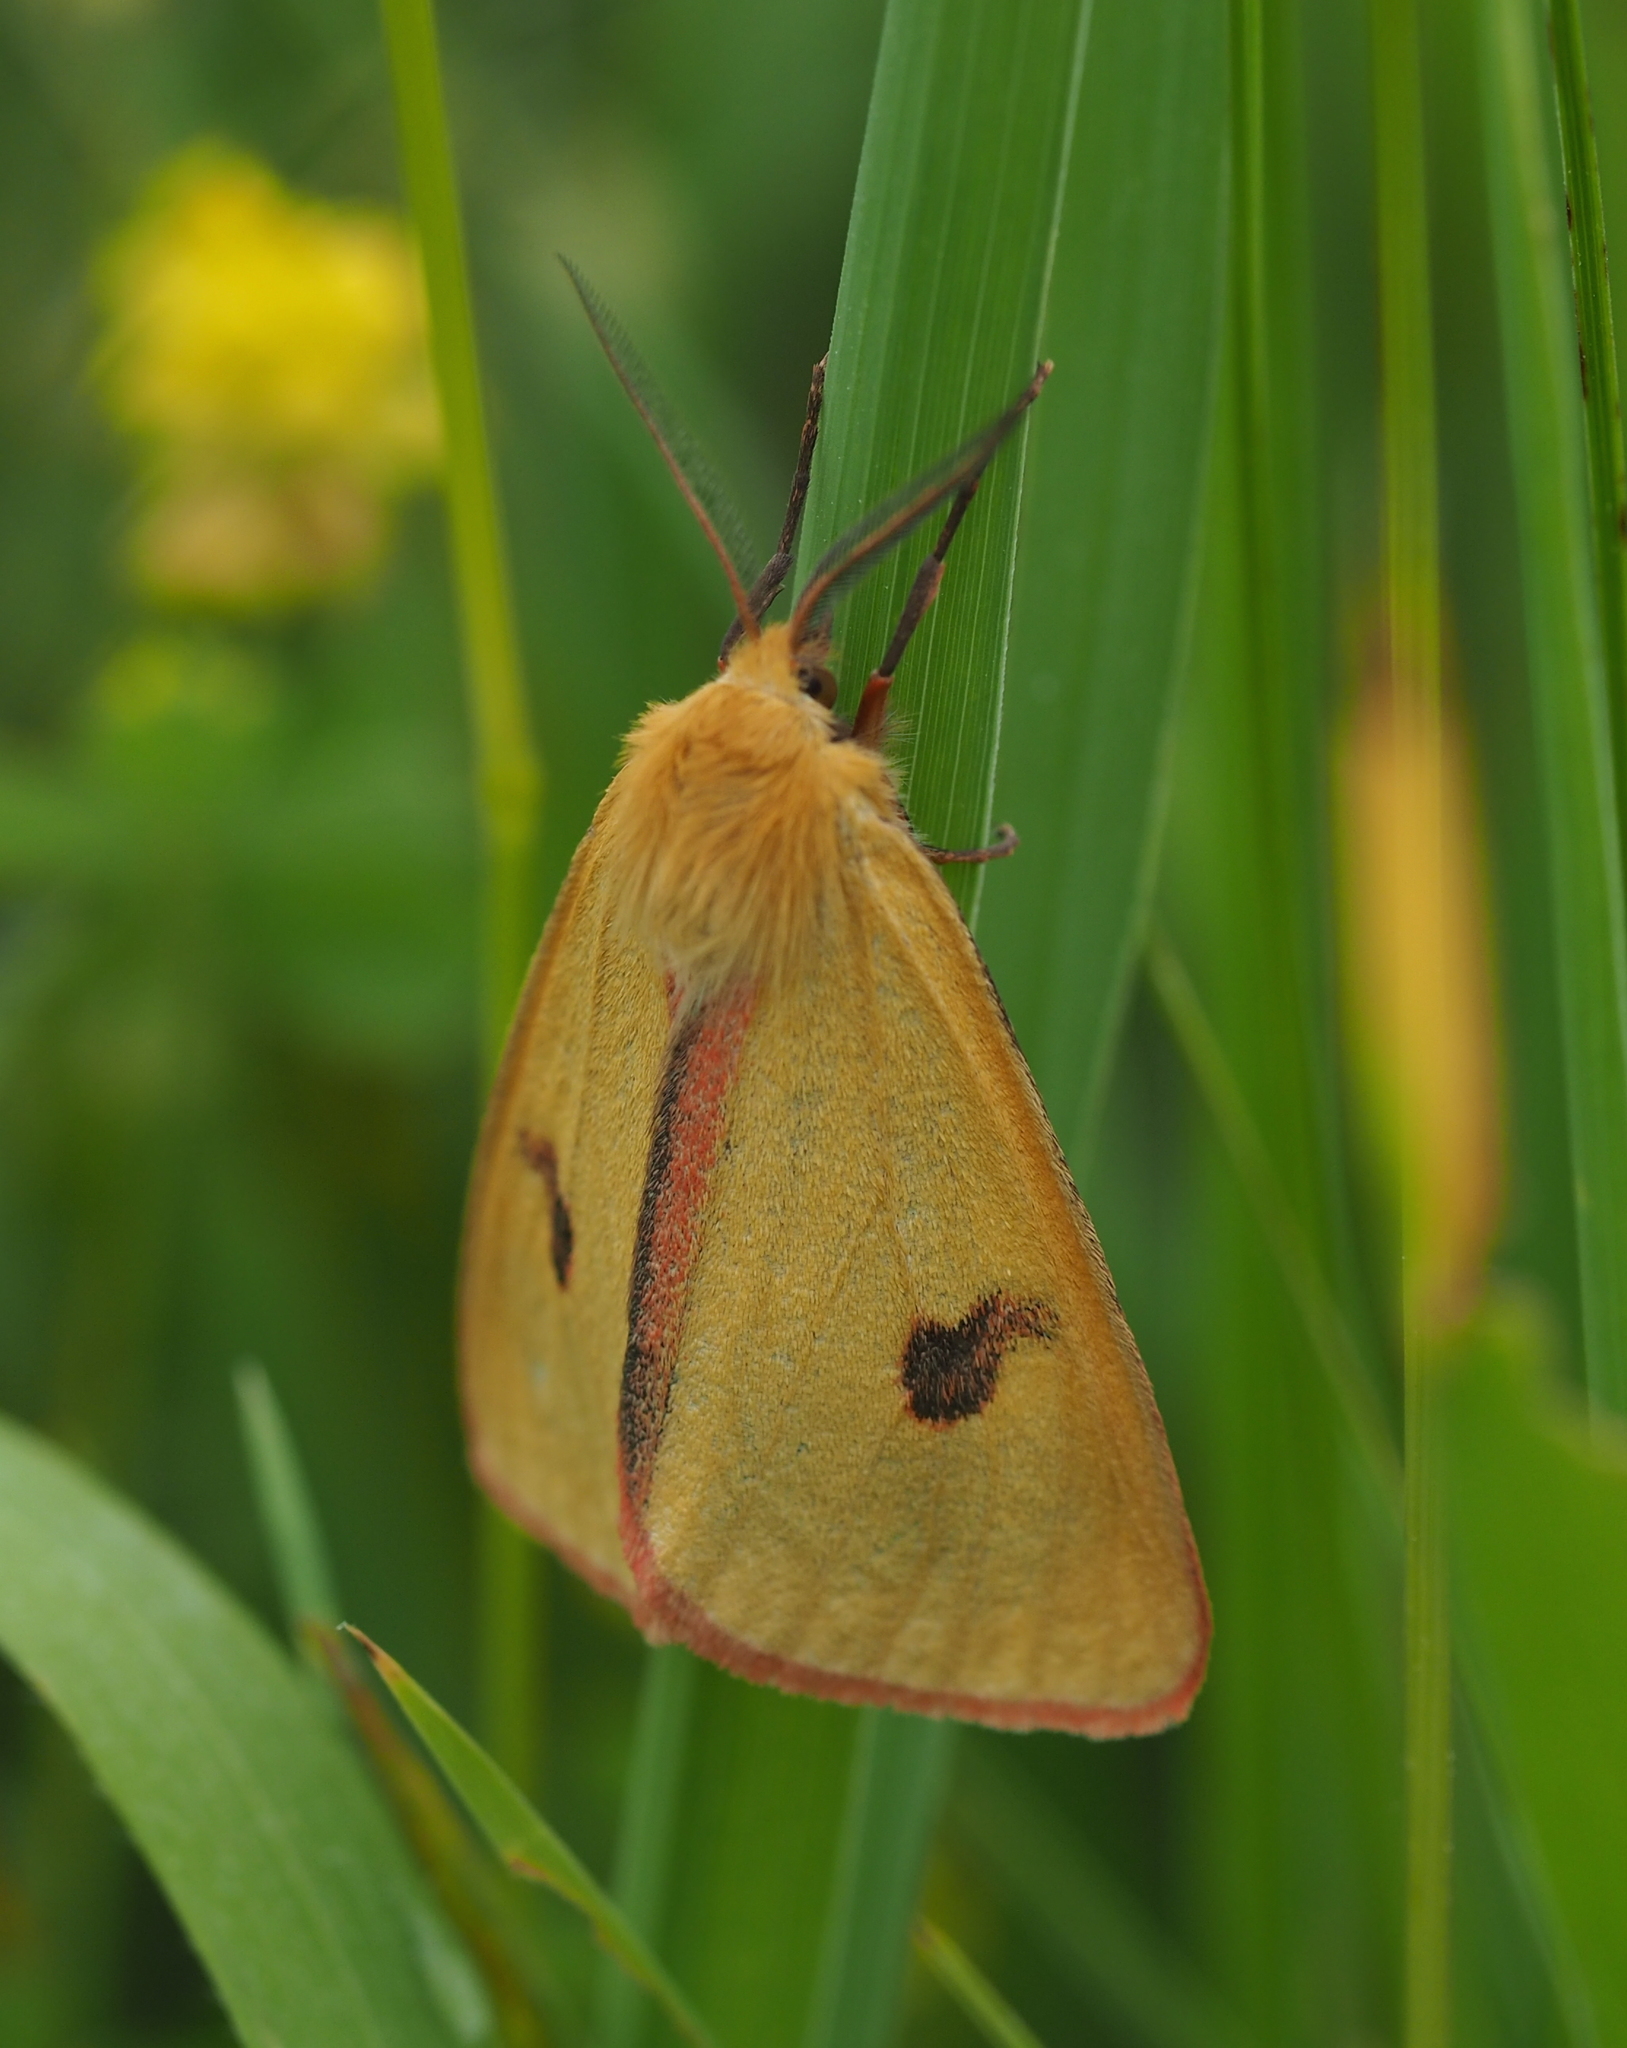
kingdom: Animalia
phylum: Arthropoda
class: Insecta
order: Lepidoptera
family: Erebidae
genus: Diacrisia
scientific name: Diacrisia sannio
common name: Clouded buff
